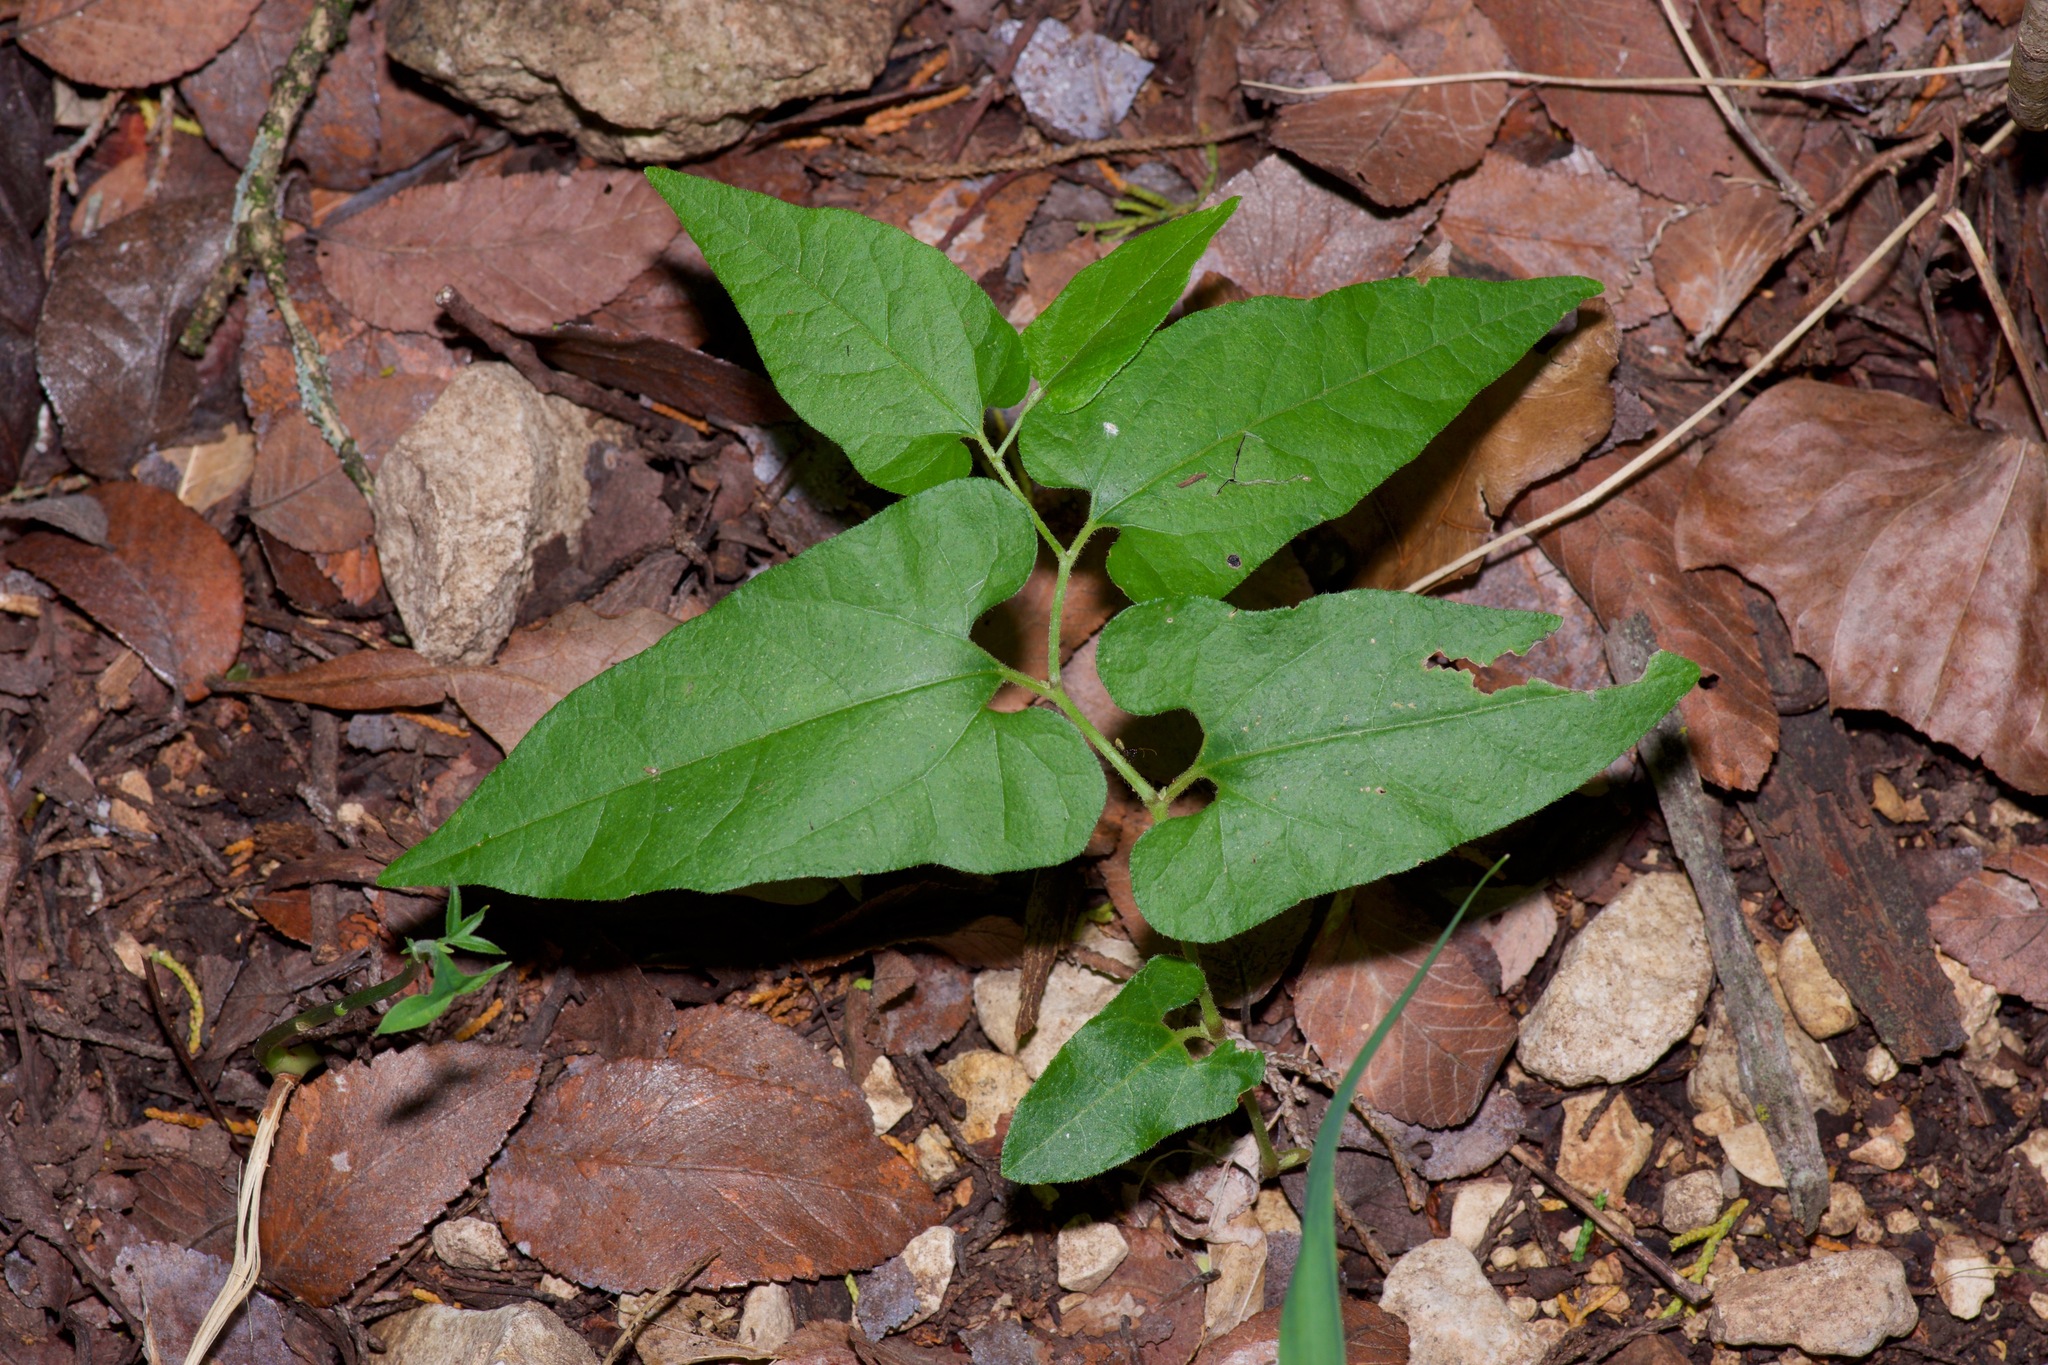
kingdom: Plantae
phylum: Tracheophyta
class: Magnoliopsida
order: Piperales
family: Aristolochiaceae
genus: Endodeca
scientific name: Endodeca serpentaria
